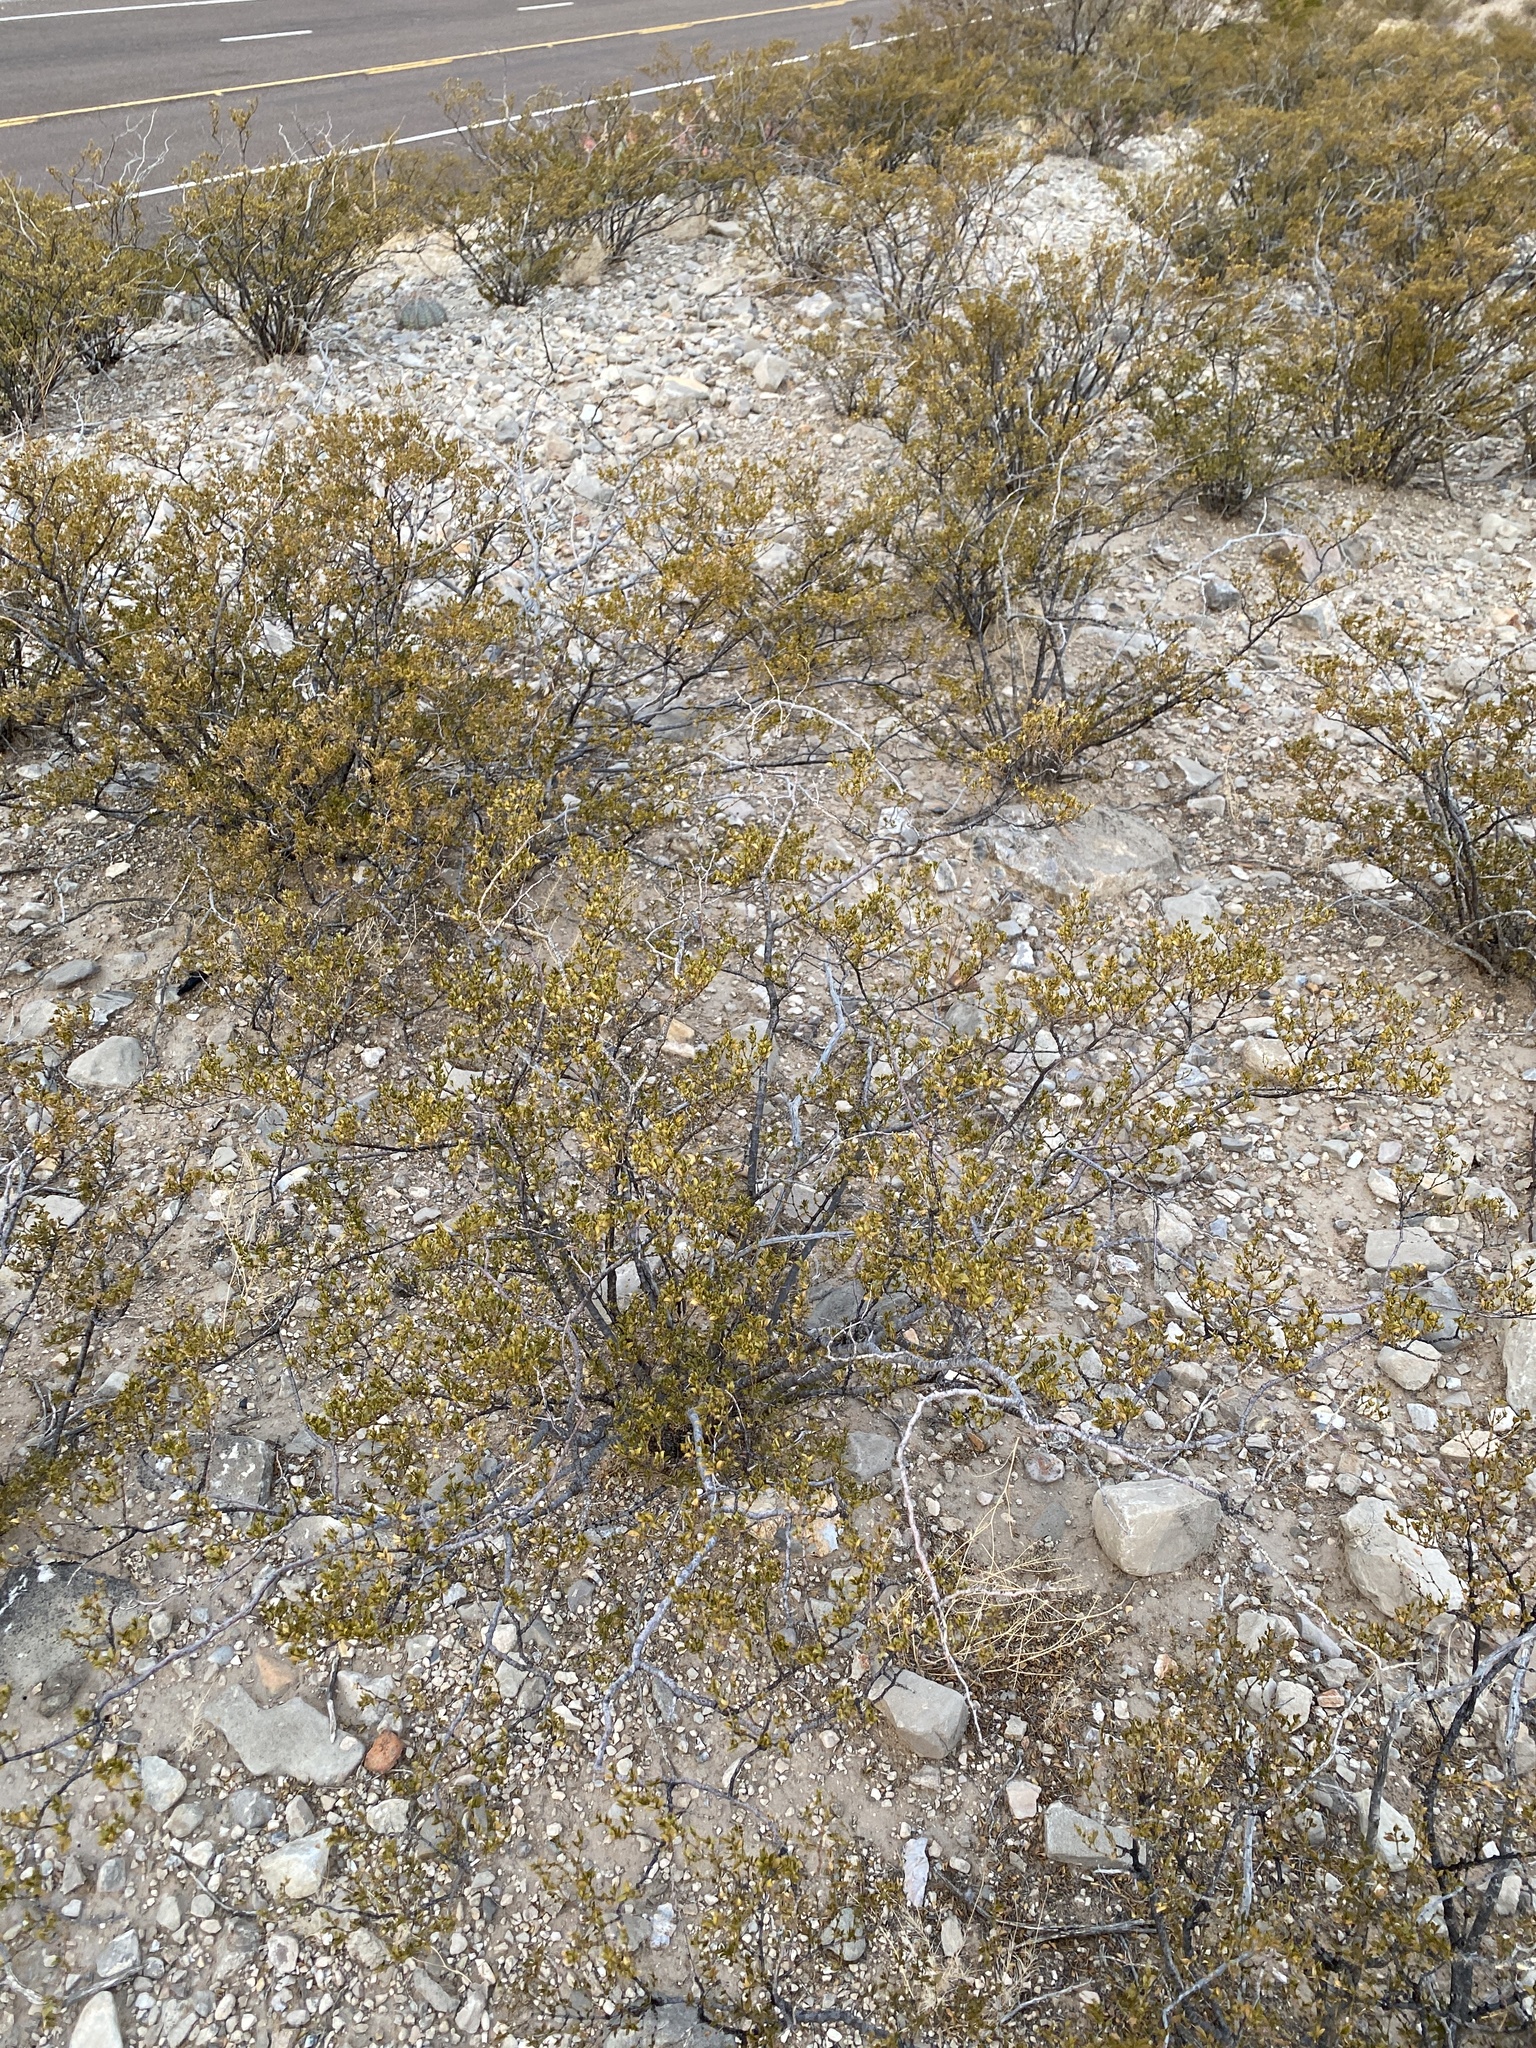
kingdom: Plantae
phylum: Tracheophyta
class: Magnoliopsida
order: Zygophyllales
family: Zygophyllaceae
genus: Larrea
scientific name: Larrea tridentata
